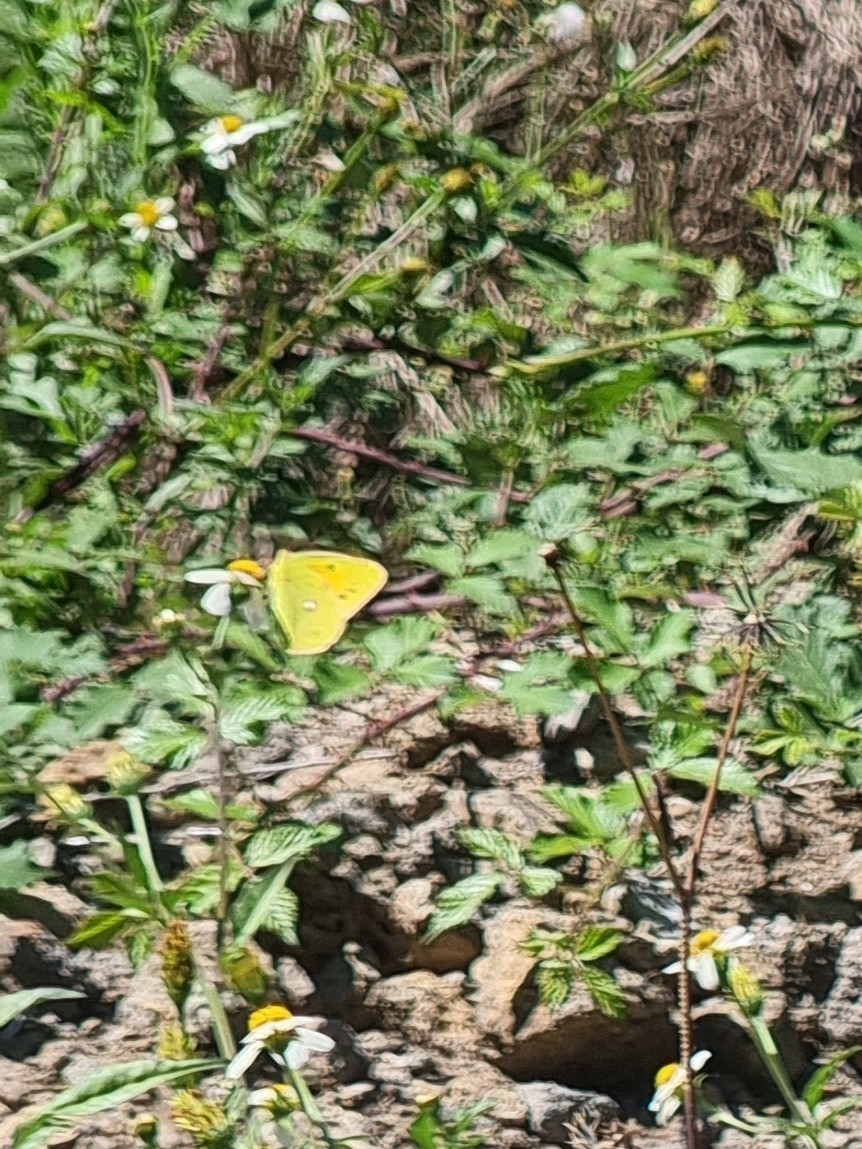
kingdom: Animalia
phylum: Arthropoda
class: Insecta
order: Lepidoptera
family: Pieridae
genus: Colias
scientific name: Colias croceus
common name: Clouded yellow
